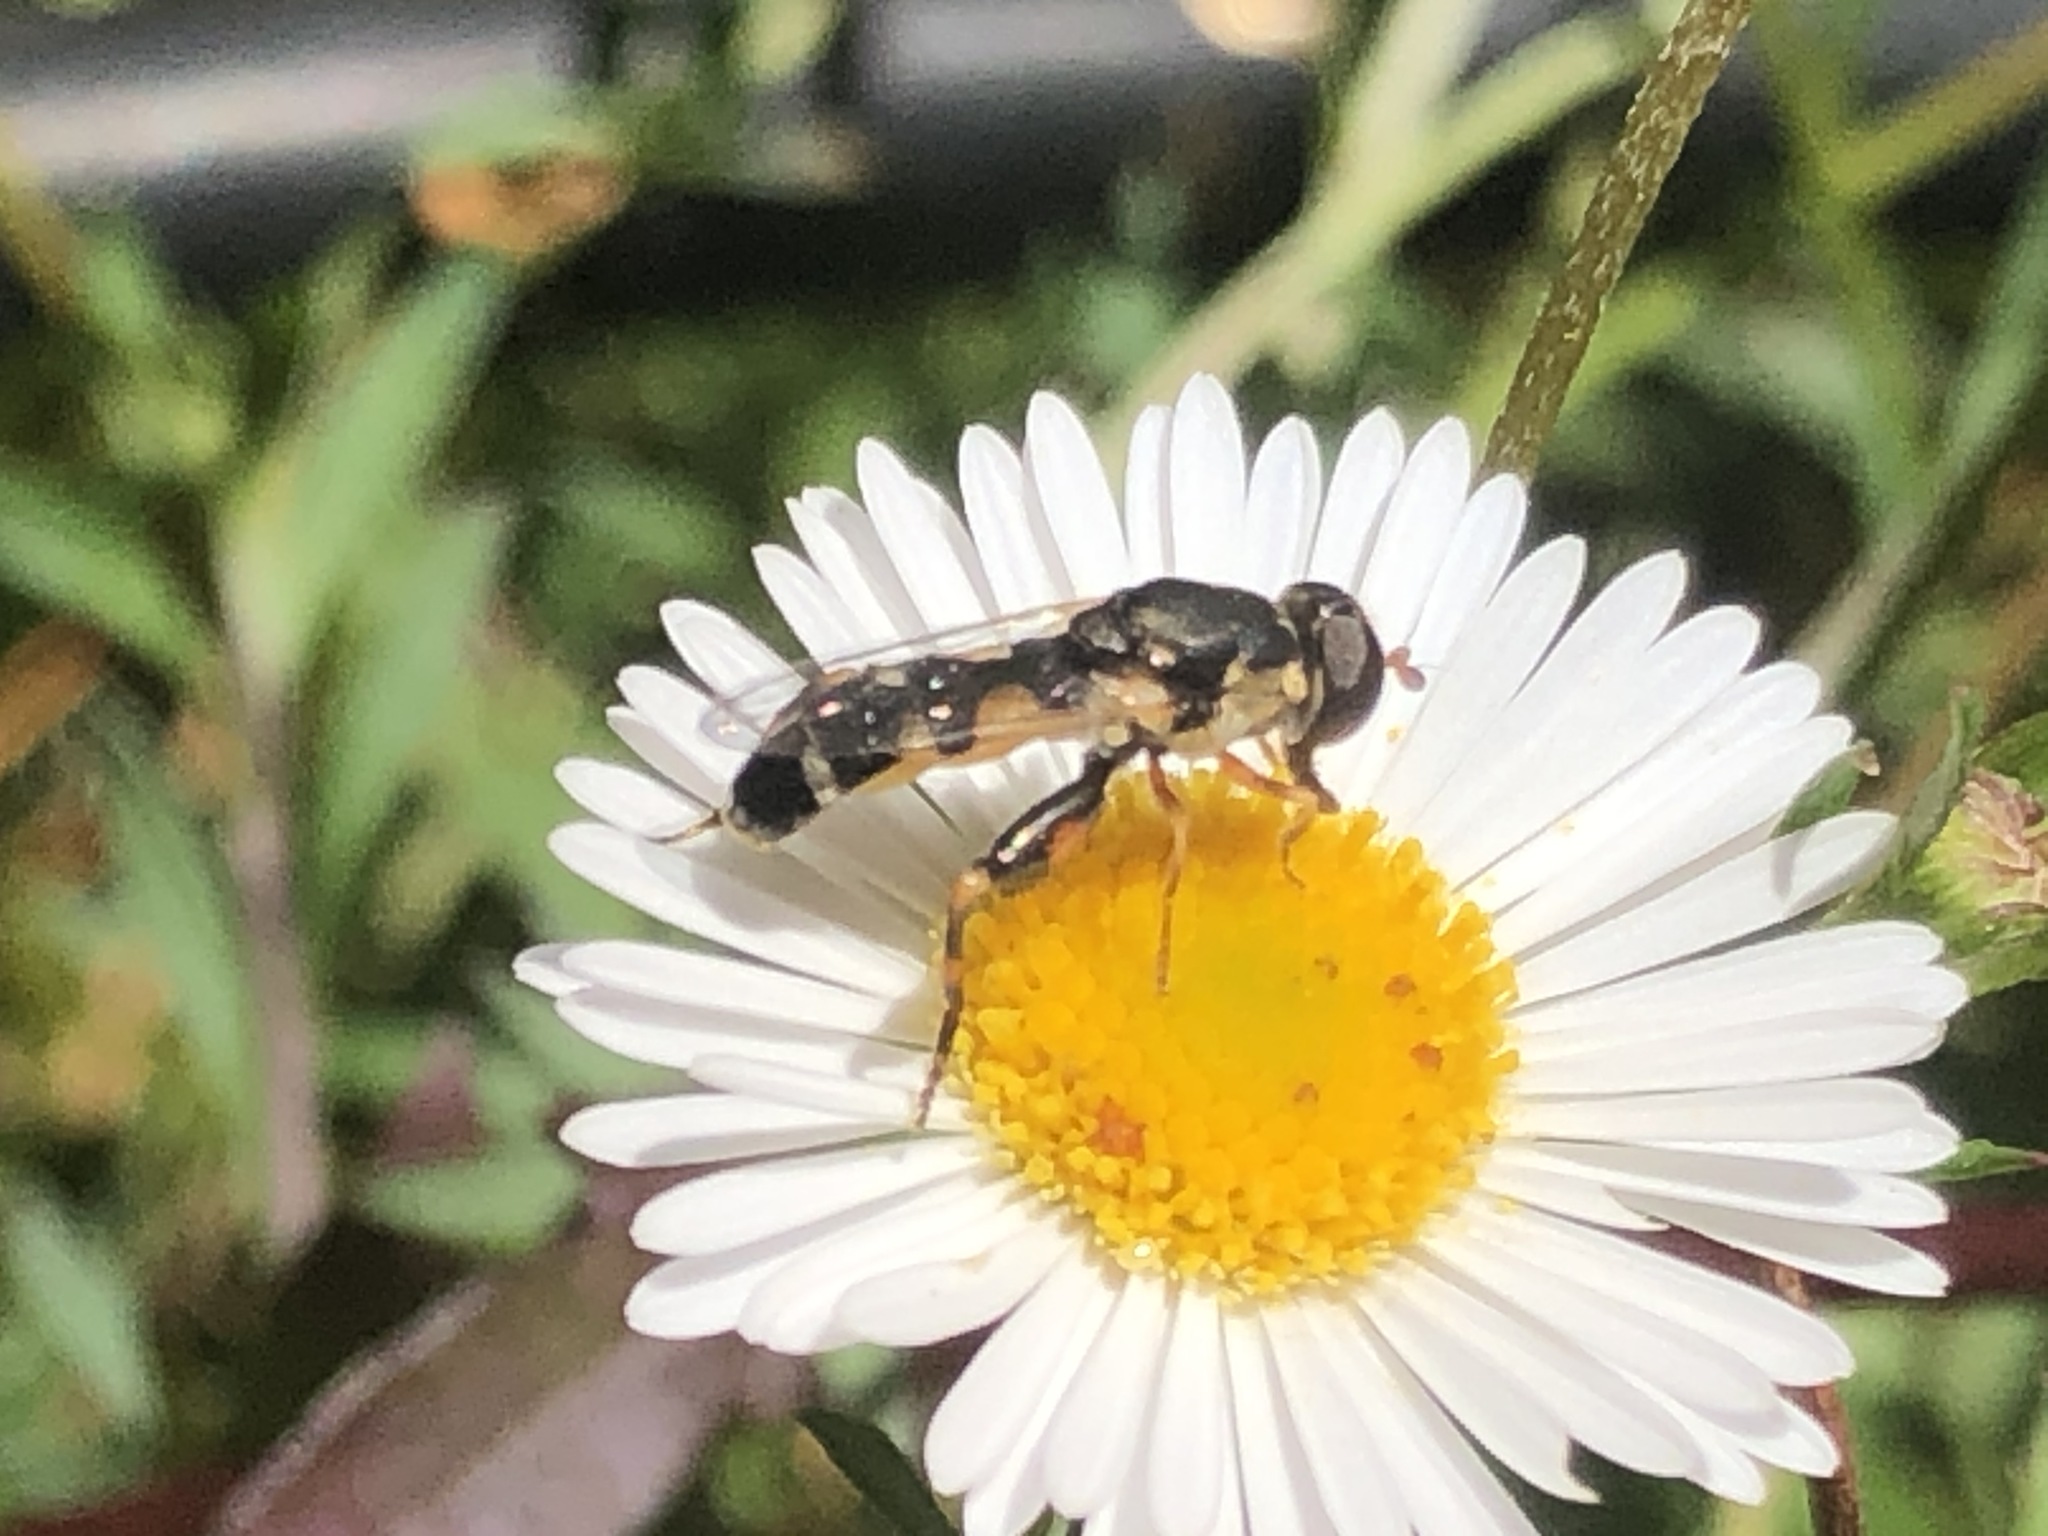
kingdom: Animalia
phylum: Arthropoda
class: Insecta
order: Diptera
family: Syrphidae
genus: Syritta
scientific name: Syritta pipiens
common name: Hover fly
